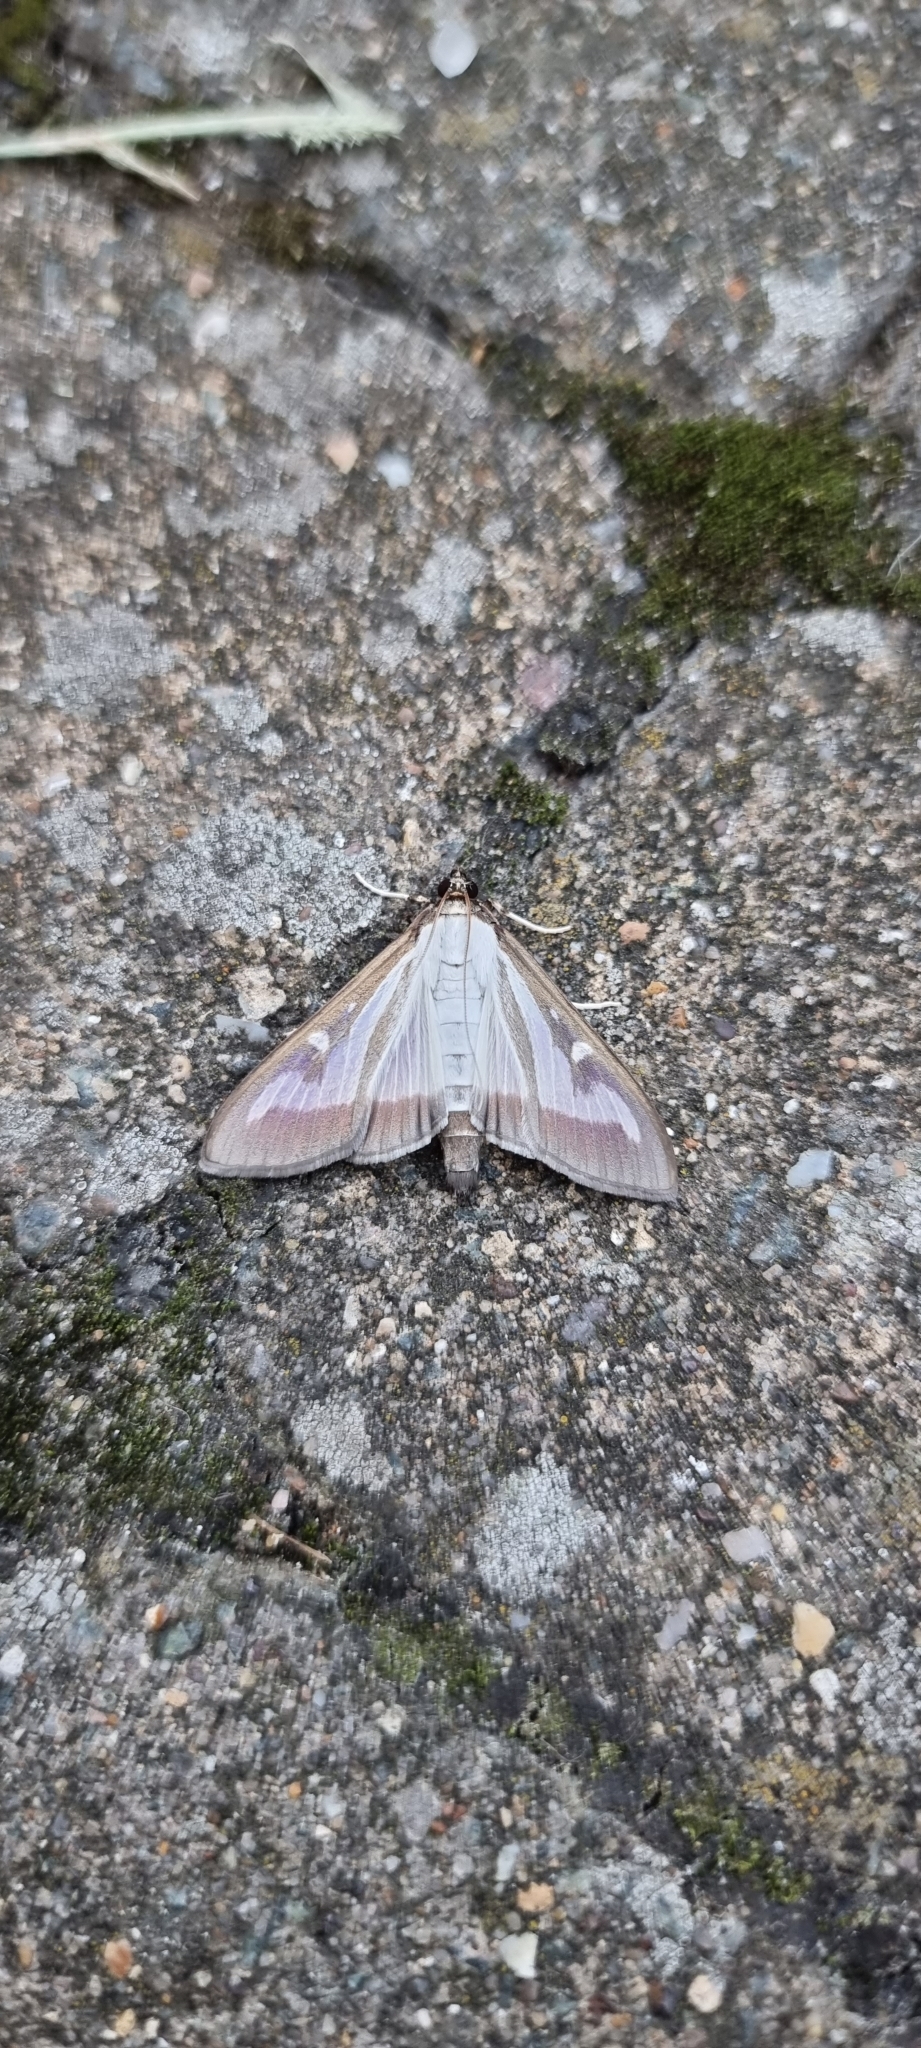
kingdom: Animalia
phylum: Arthropoda
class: Insecta
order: Lepidoptera
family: Crambidae
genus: Cydalima
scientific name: Cydalima perspectalis
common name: Box tree moth
